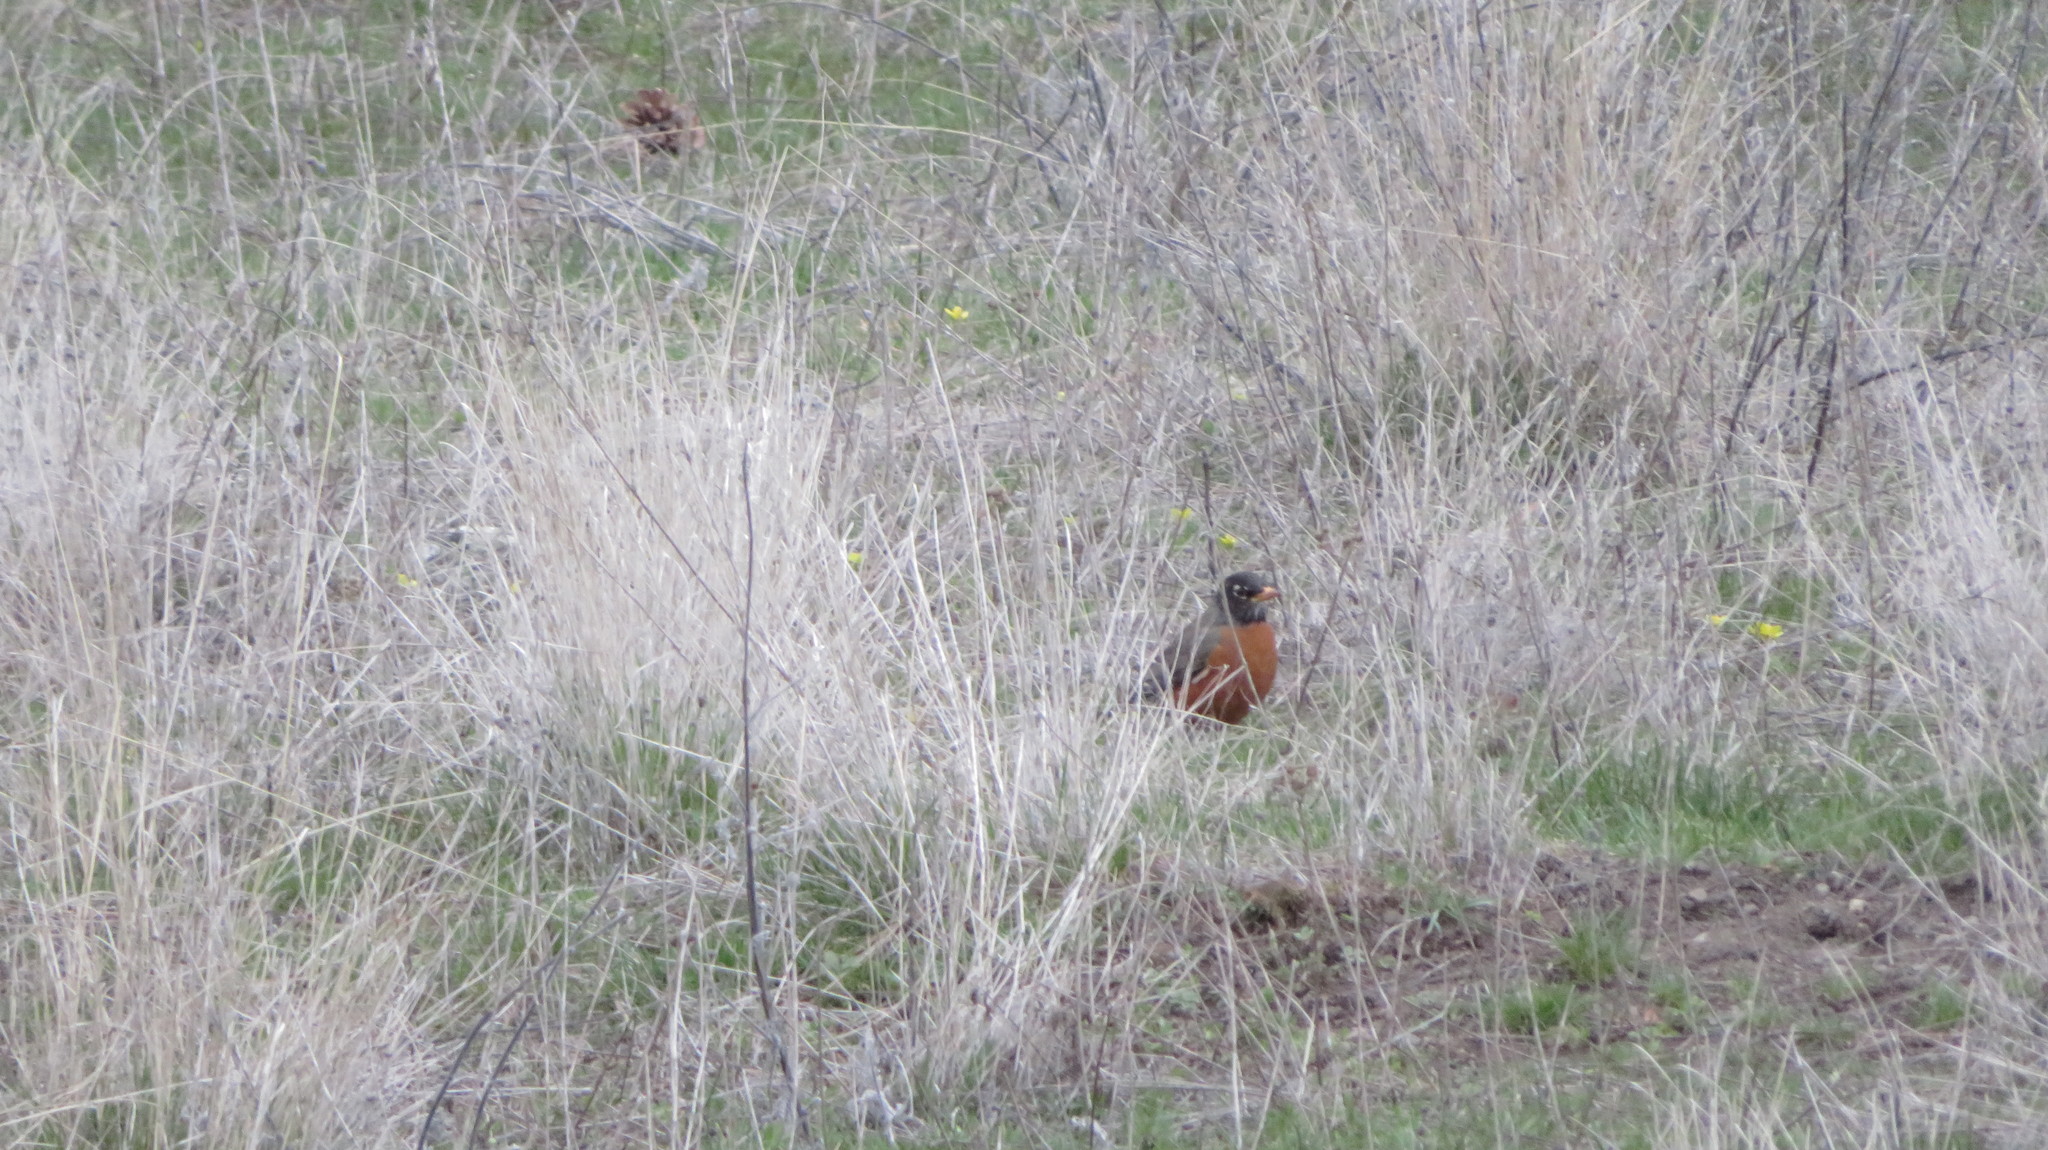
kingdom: Animalia
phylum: Chordata
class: Aves
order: Passeriformes
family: Turdidae
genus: Turdus
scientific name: Turdus migratorius
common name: American robin
